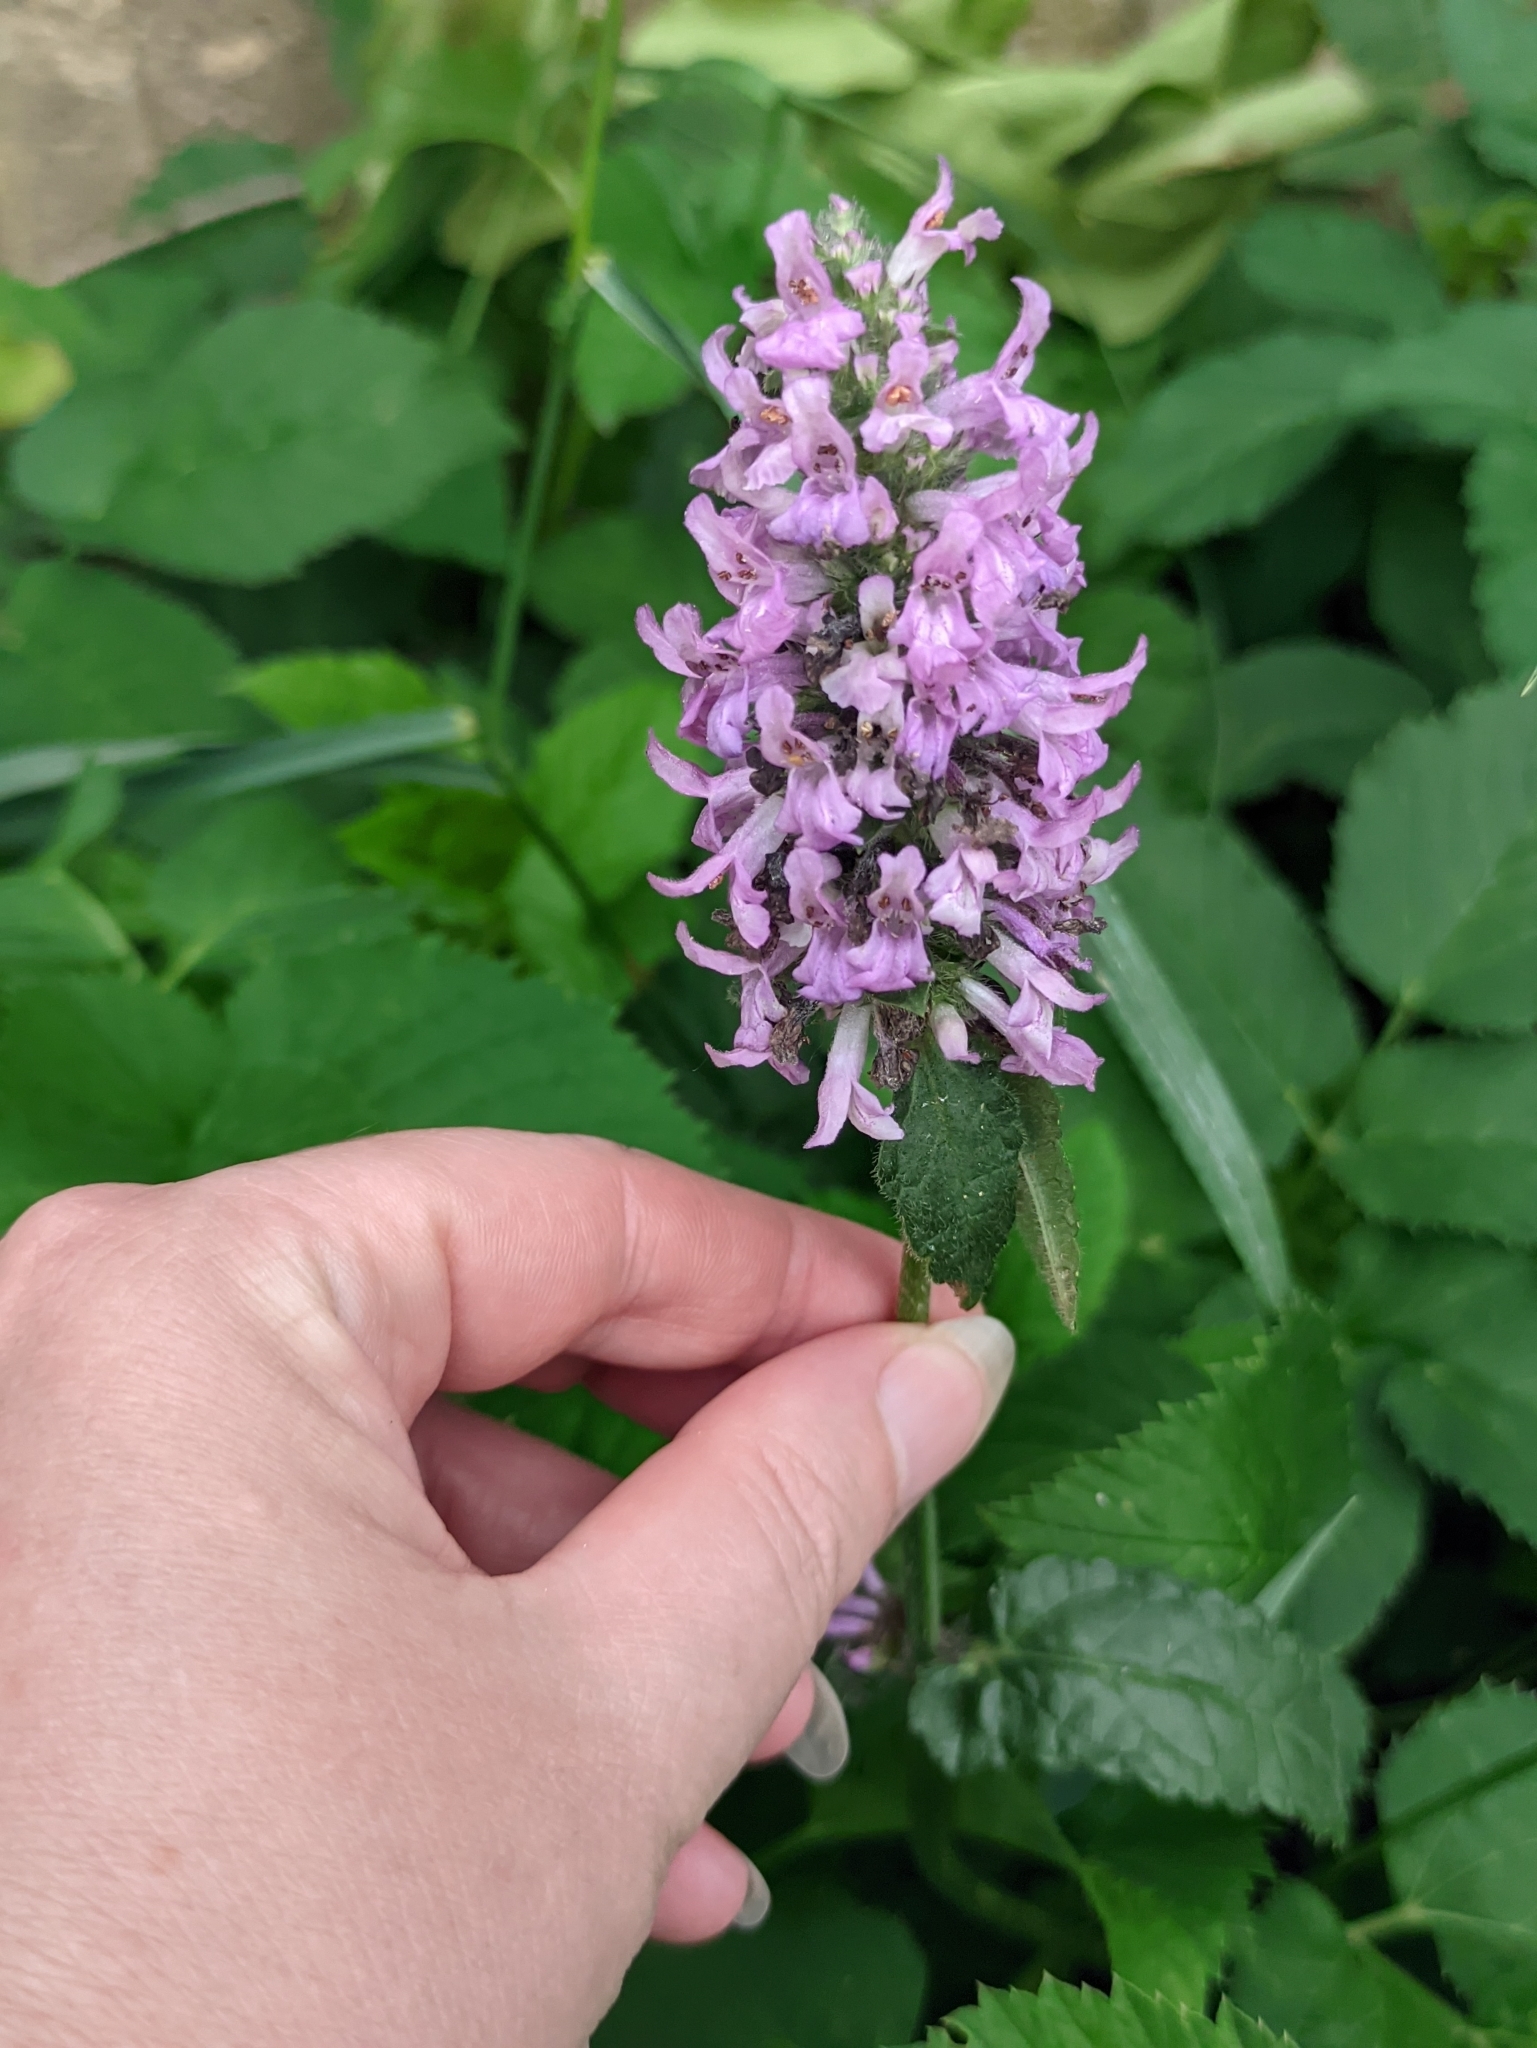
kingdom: Plantae
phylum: Tracheophyta
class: Magnoliopsida
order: Lamiales
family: Lamiaceae
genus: Betonica
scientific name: Betonica officinalis
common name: Bishop's-wort
